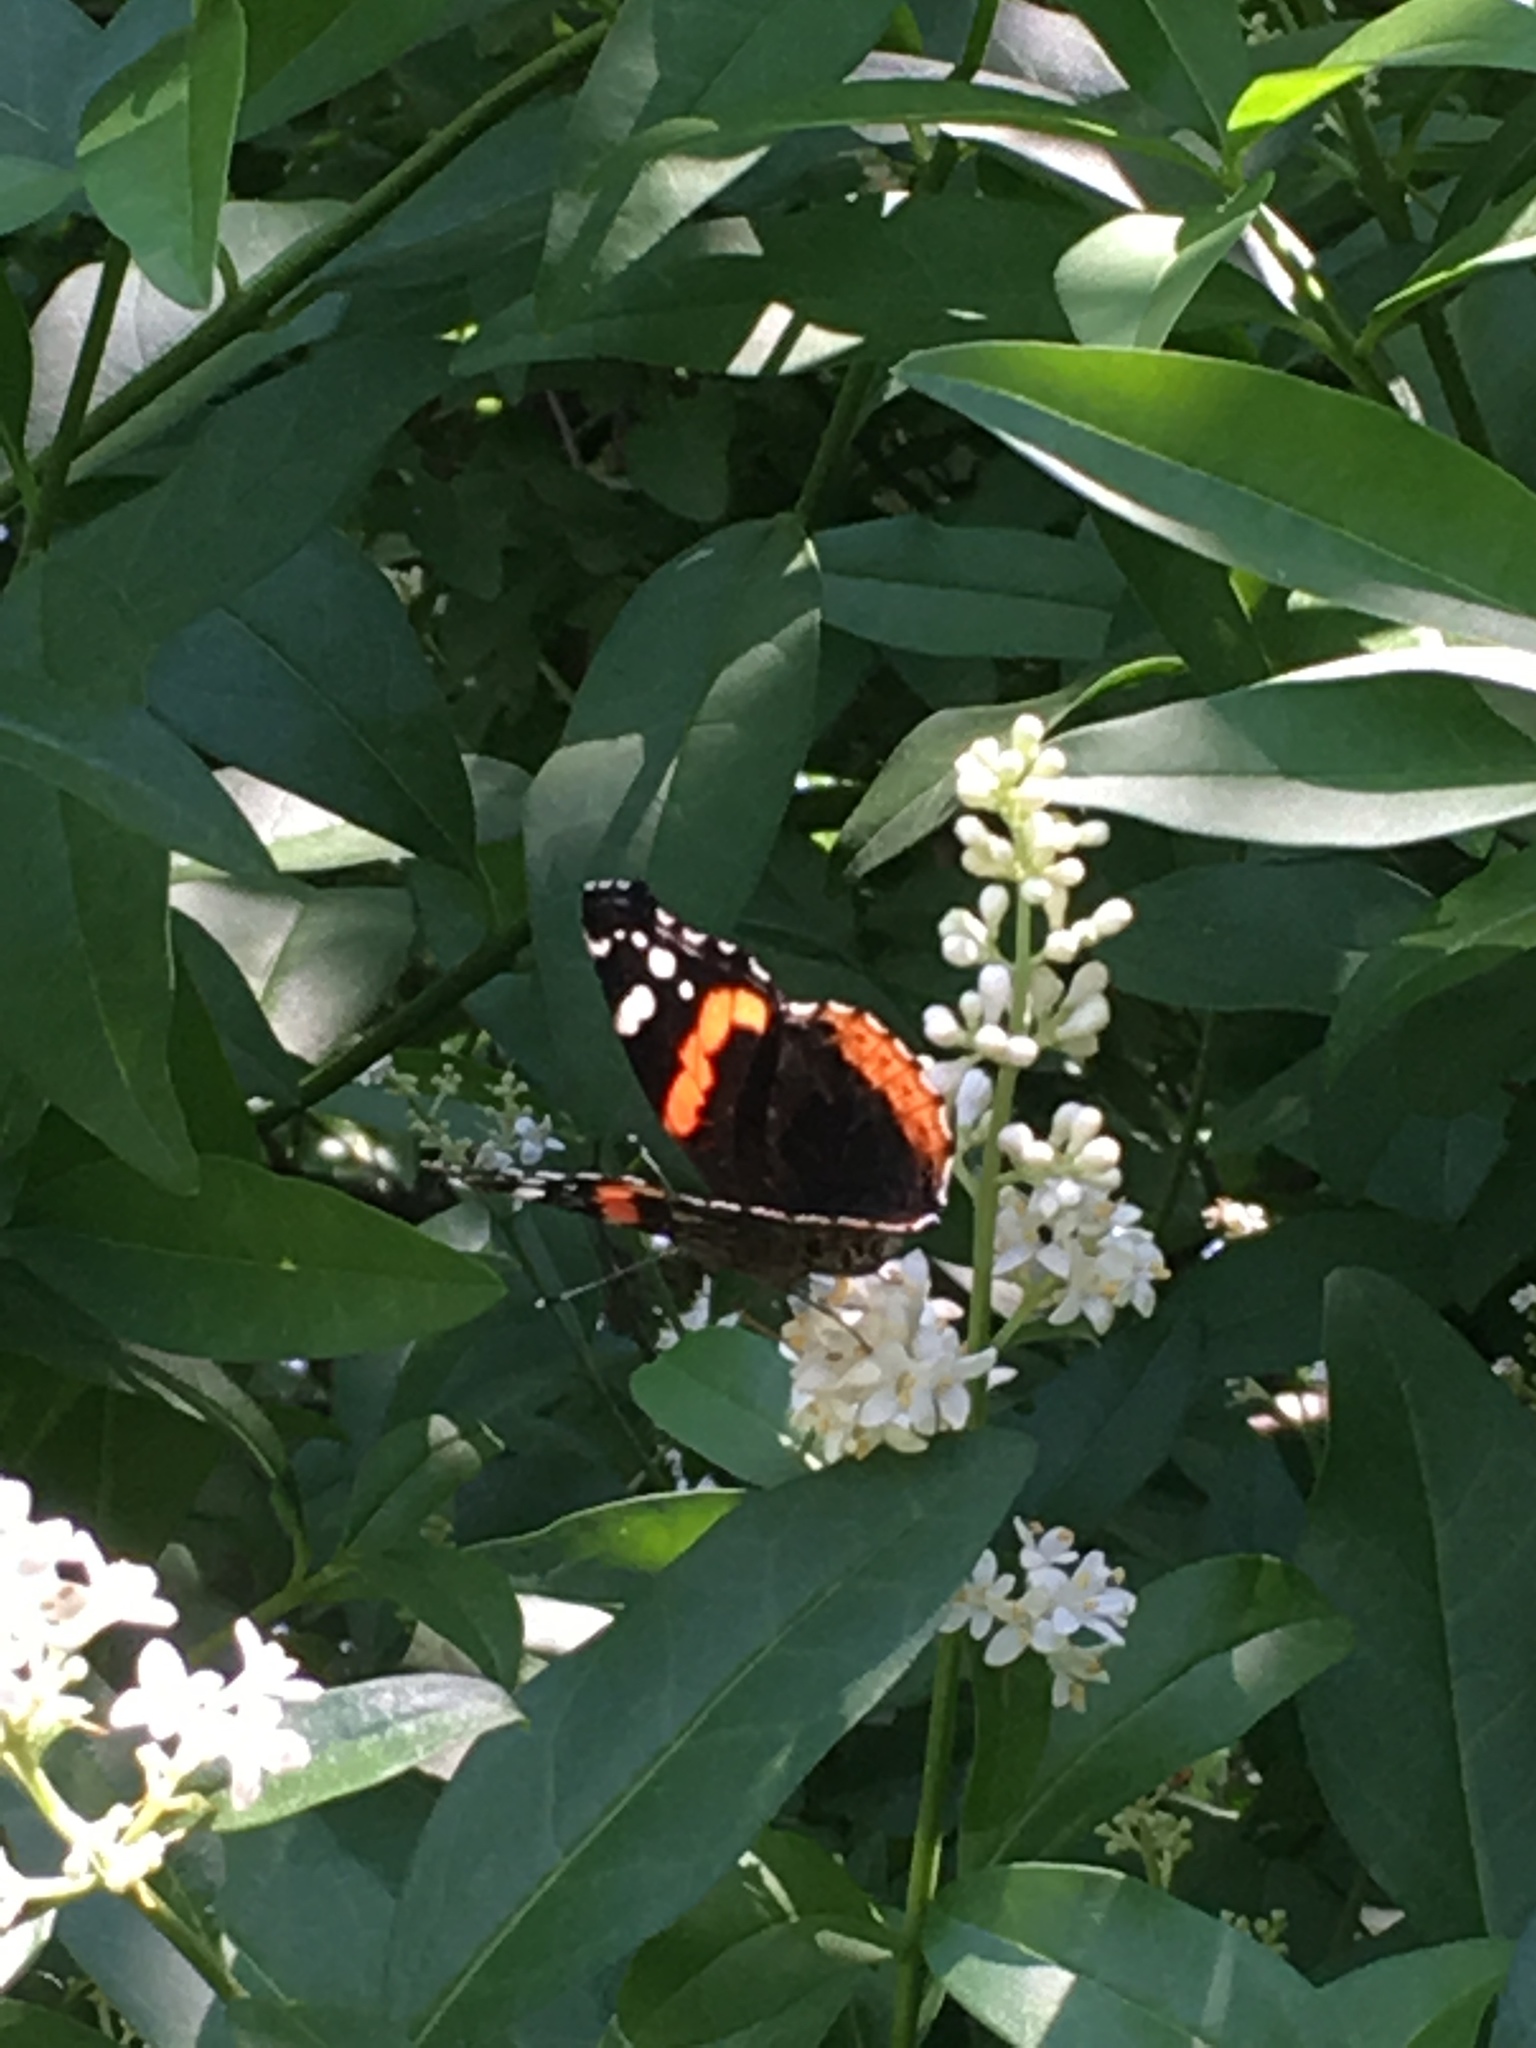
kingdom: Animalia
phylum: Arthropoda
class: Insecta
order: Lepidoptera
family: Nymphalidae
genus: Vanessa
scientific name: Vanessa atalanta
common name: Red admiral
